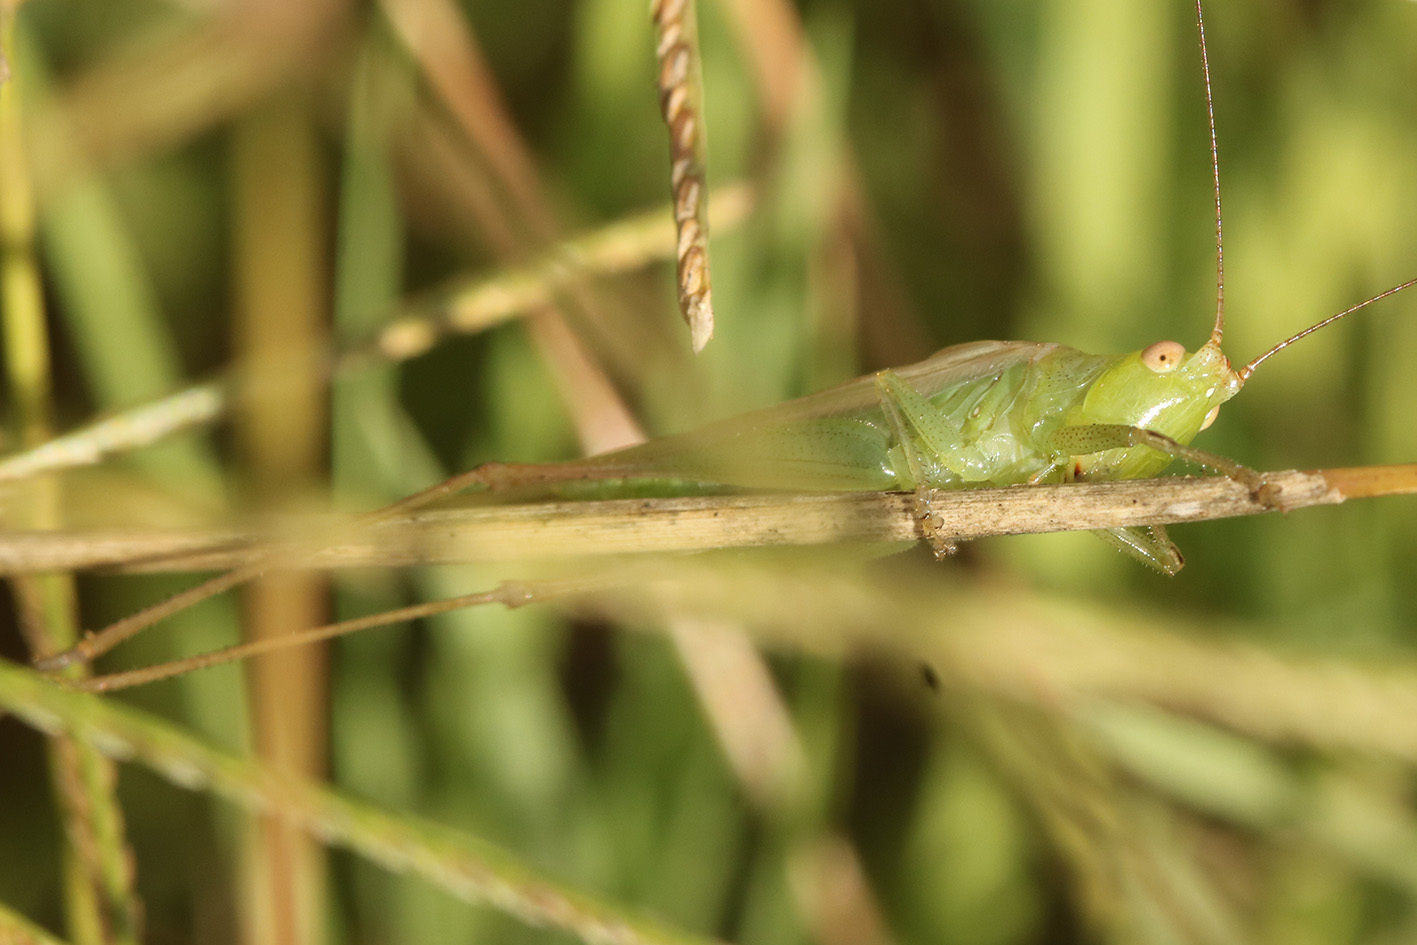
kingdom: Animalia
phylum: Arthropoda
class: Insecta
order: Orthoptera
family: Tettigoniidae
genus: Conocephalus
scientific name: Conocephalus longipes
